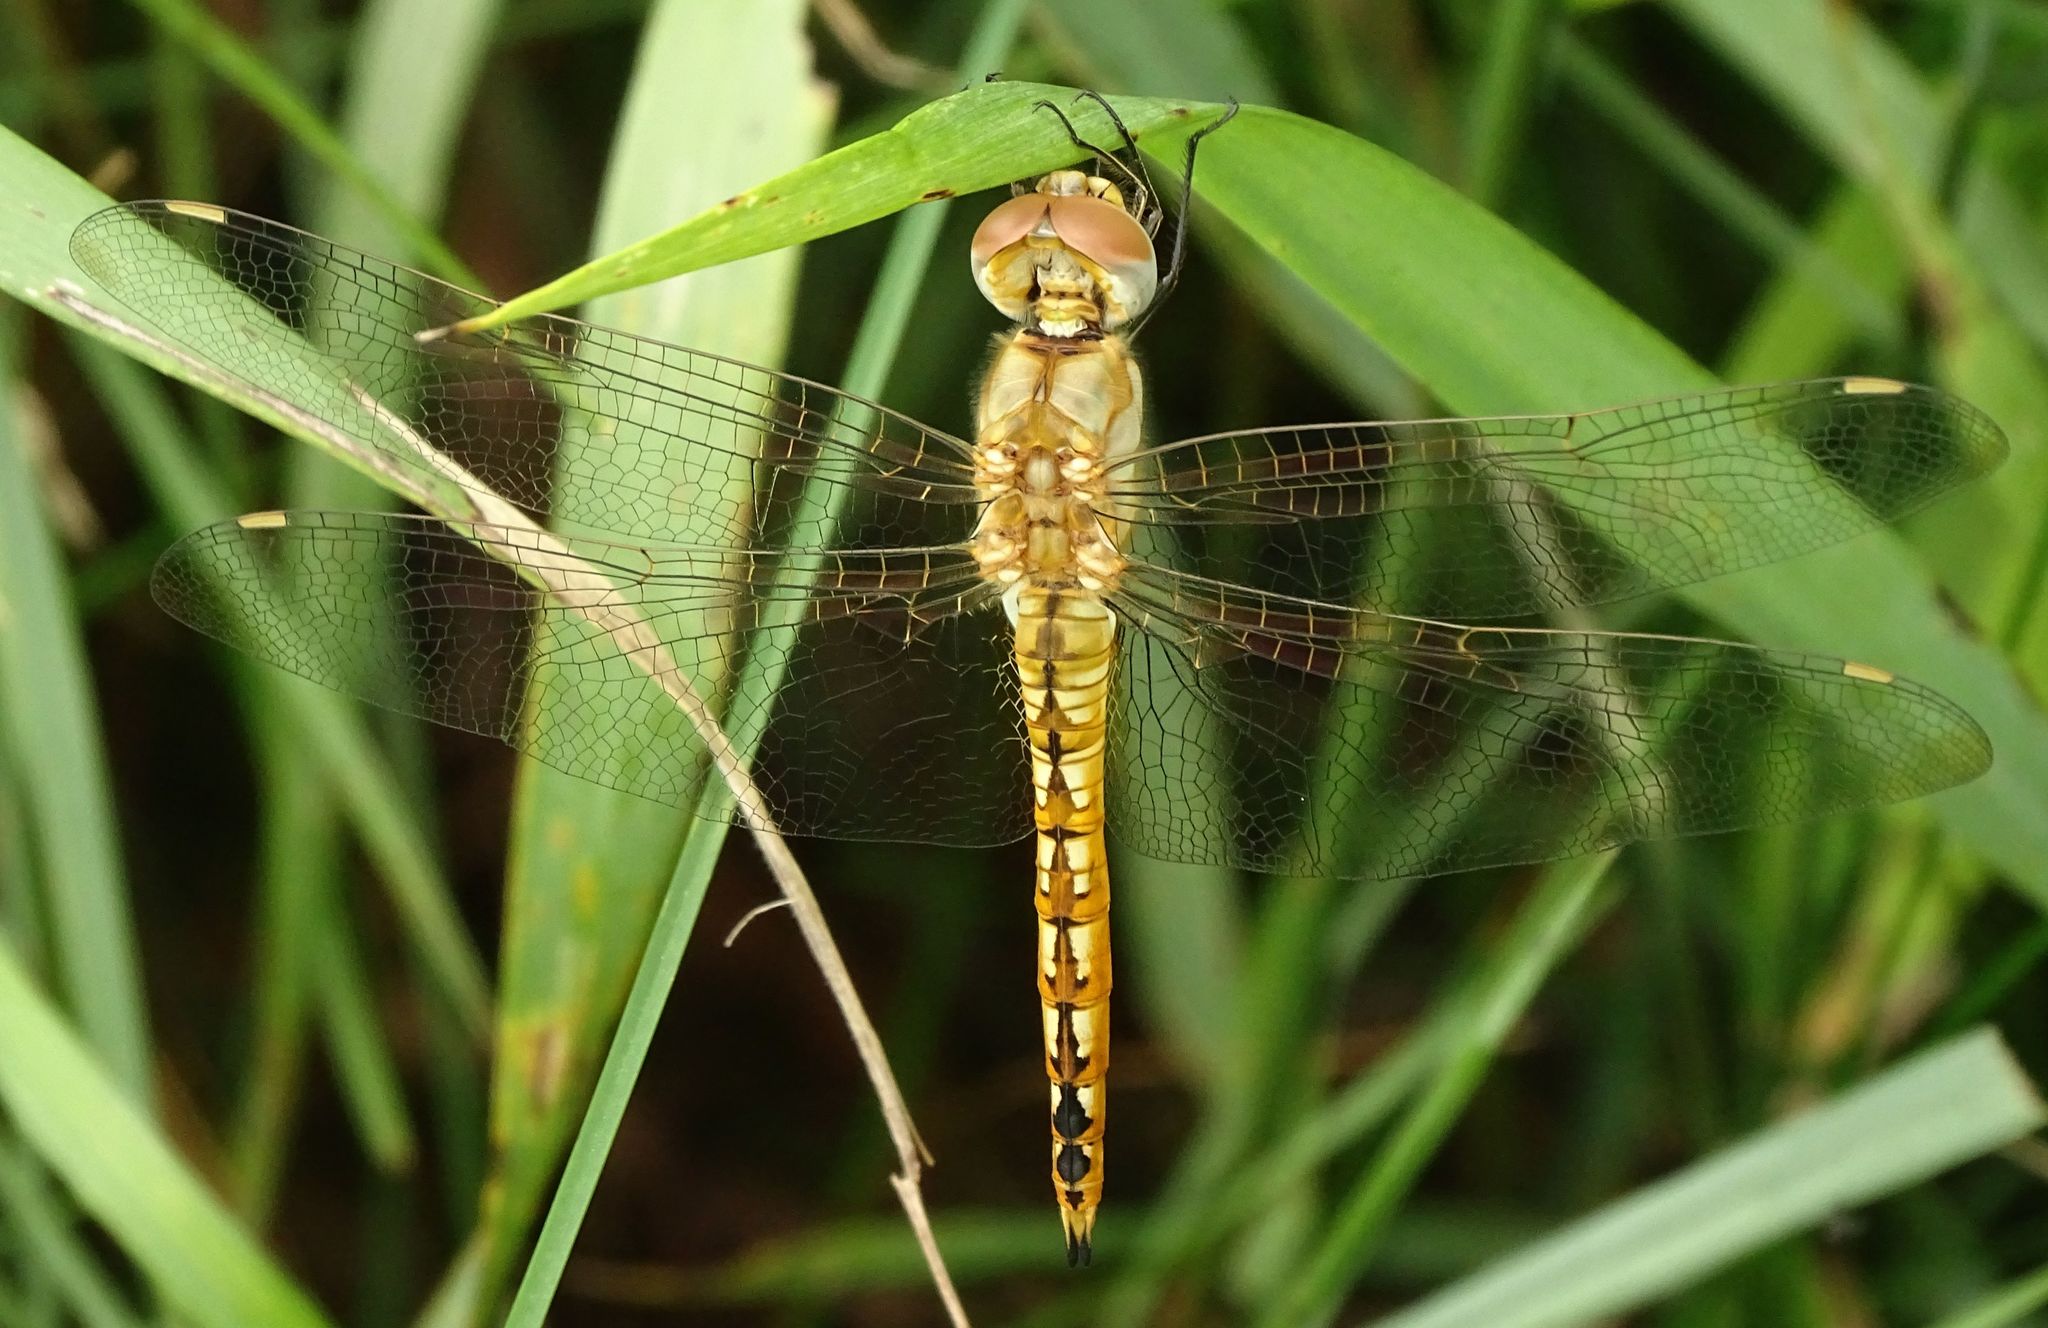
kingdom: Animalia
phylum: Arthropoda
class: Insecta
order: Odonata
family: Libellulidae
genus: Pantala
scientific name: Pantala flavescens
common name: Wandering glider
